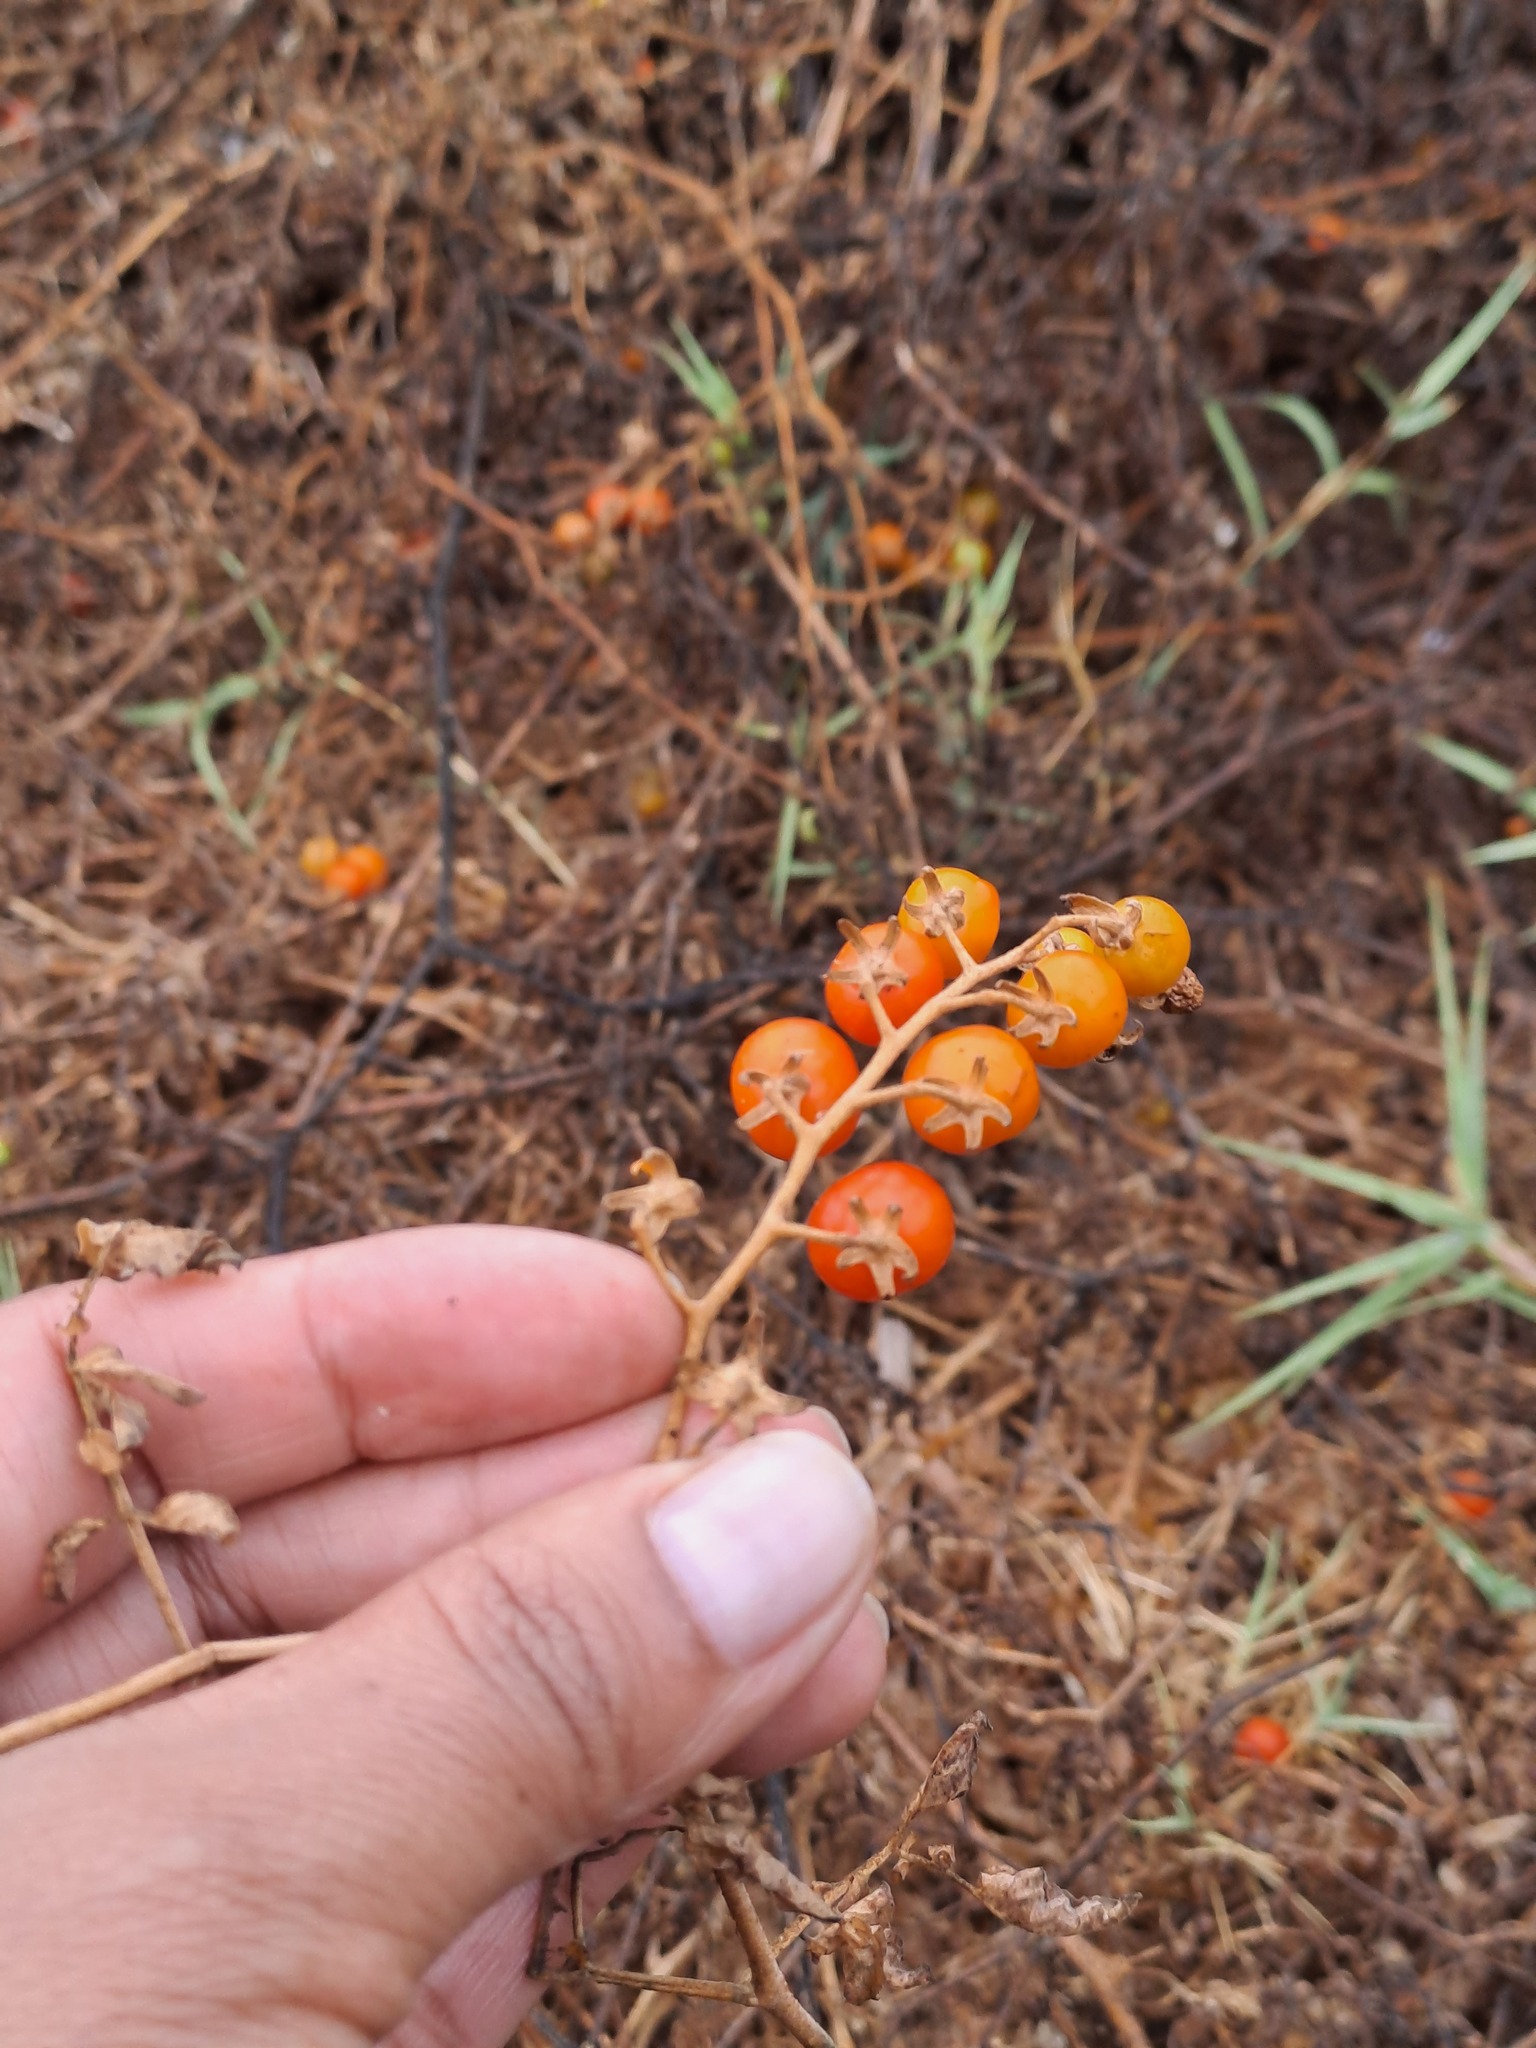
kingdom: Plantae
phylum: Tracheophyta
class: Magnoliopsida
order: Solanales
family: Solanaceae
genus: Solanum
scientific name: Solanum pimpinellifolium
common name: Currant-tomato
